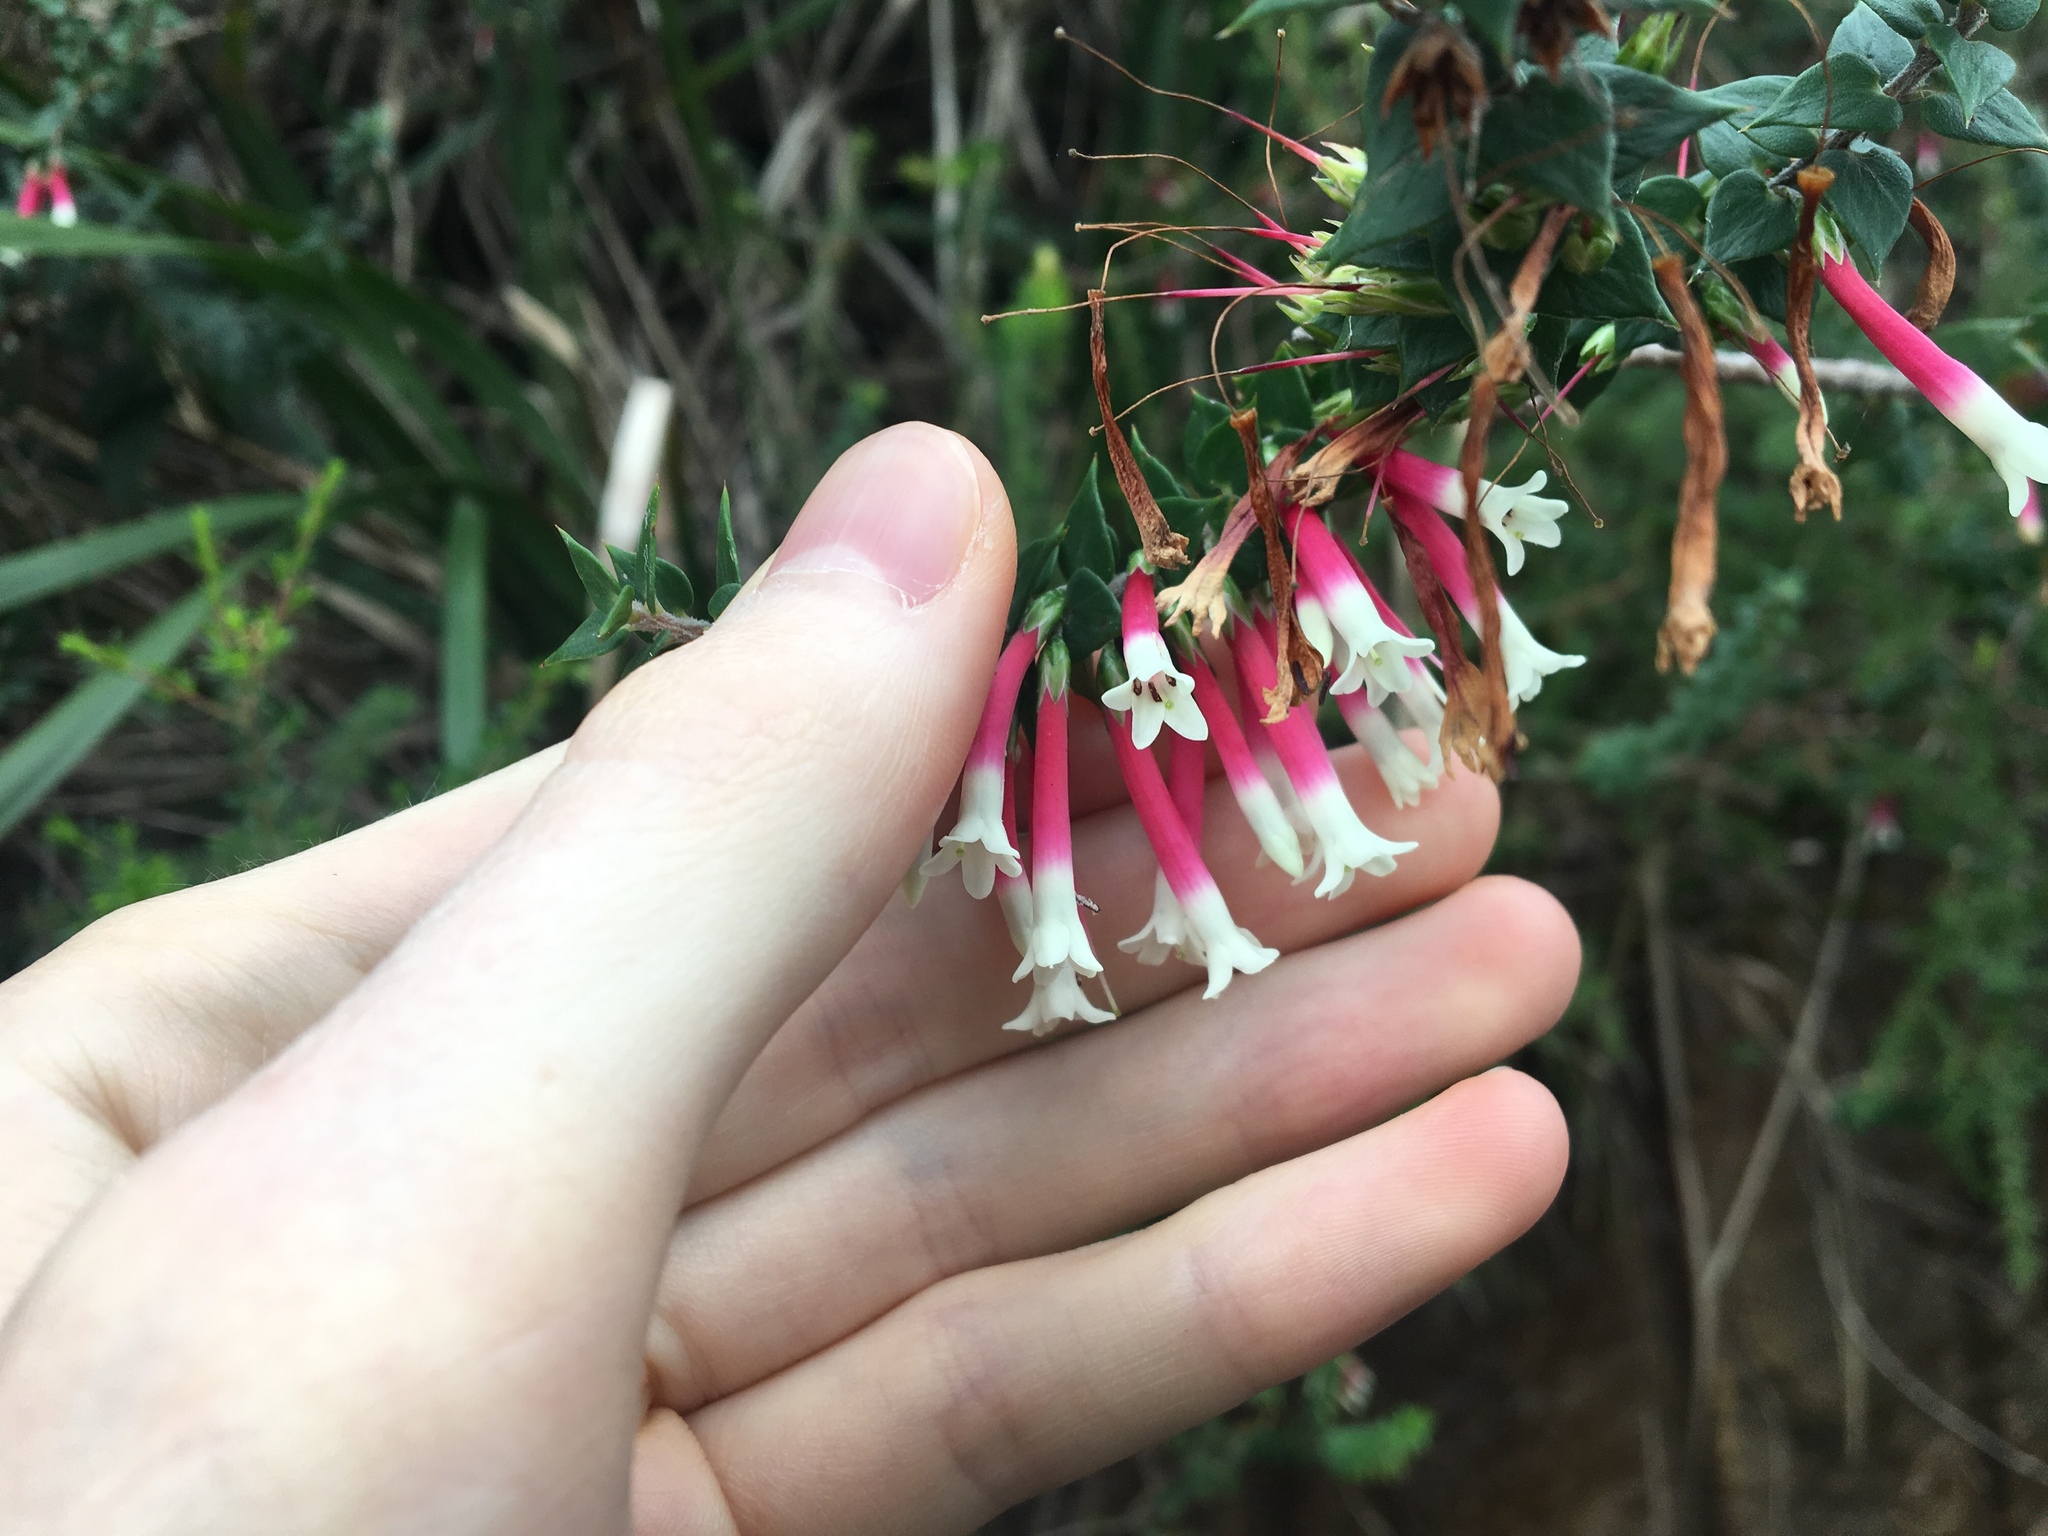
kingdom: Plantae
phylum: Tracheophyta
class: Magnoliopsida
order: Ericales
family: Ericaceae
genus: Epacris
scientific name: Epacris longiflora
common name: Fuchsia-heath
